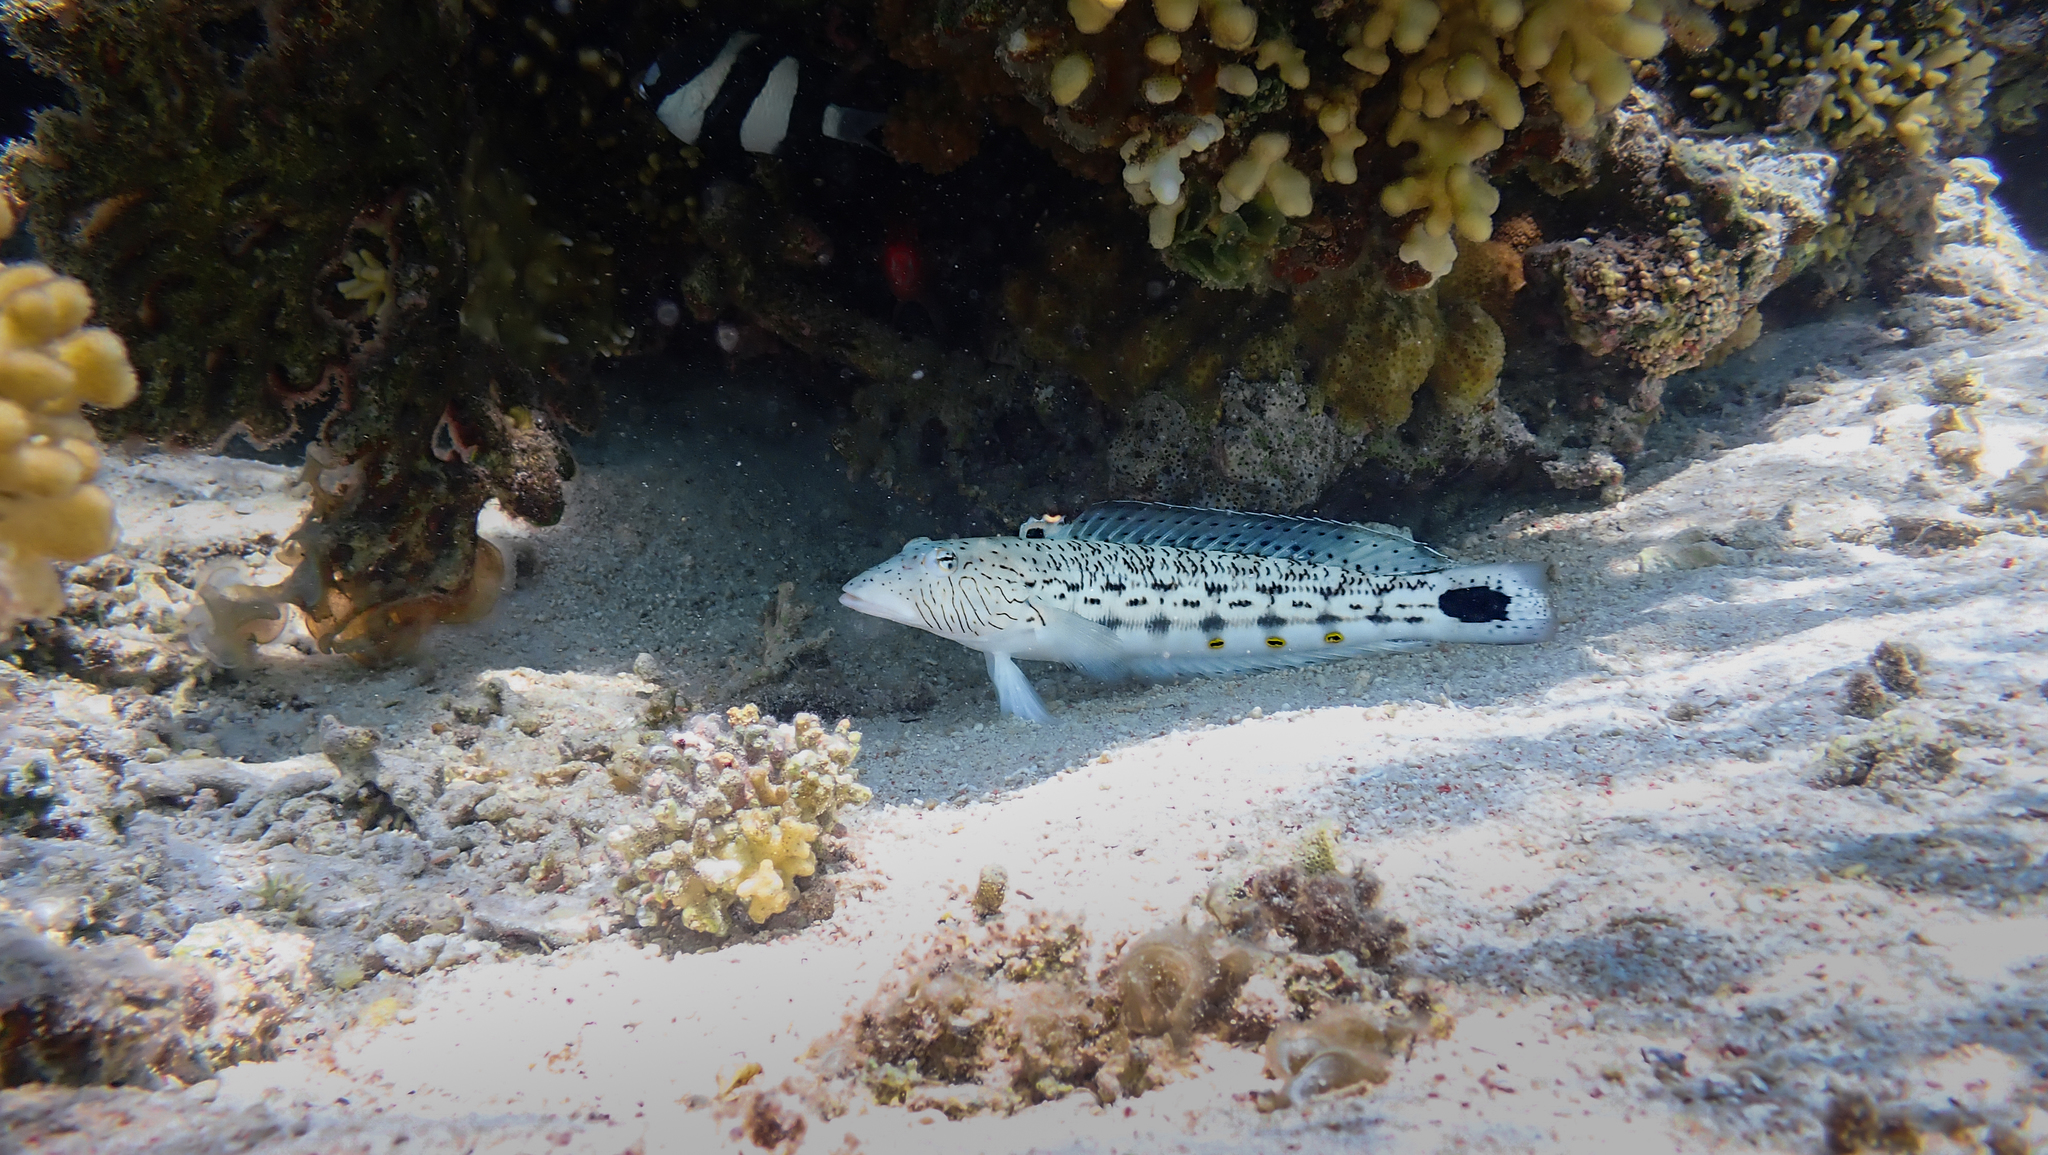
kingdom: Animalia
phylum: Chordata
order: Perciformes
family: Pinguipedidae
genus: Parapercis
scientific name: Parapercis hexophtalma
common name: Speckled sandperch
